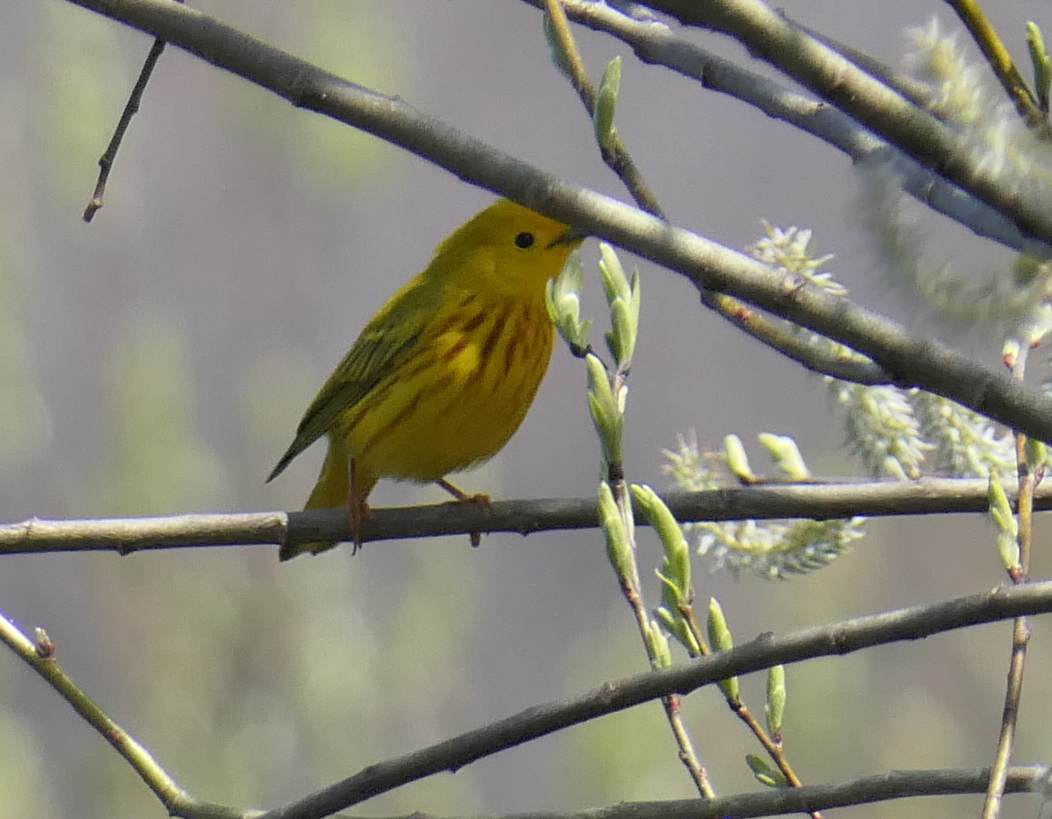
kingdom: Animalia
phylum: Chordata
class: Aves
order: Passeriformes
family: Parulidae
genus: Setophaga
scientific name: Setophaga petechia
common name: Yellow warbler
